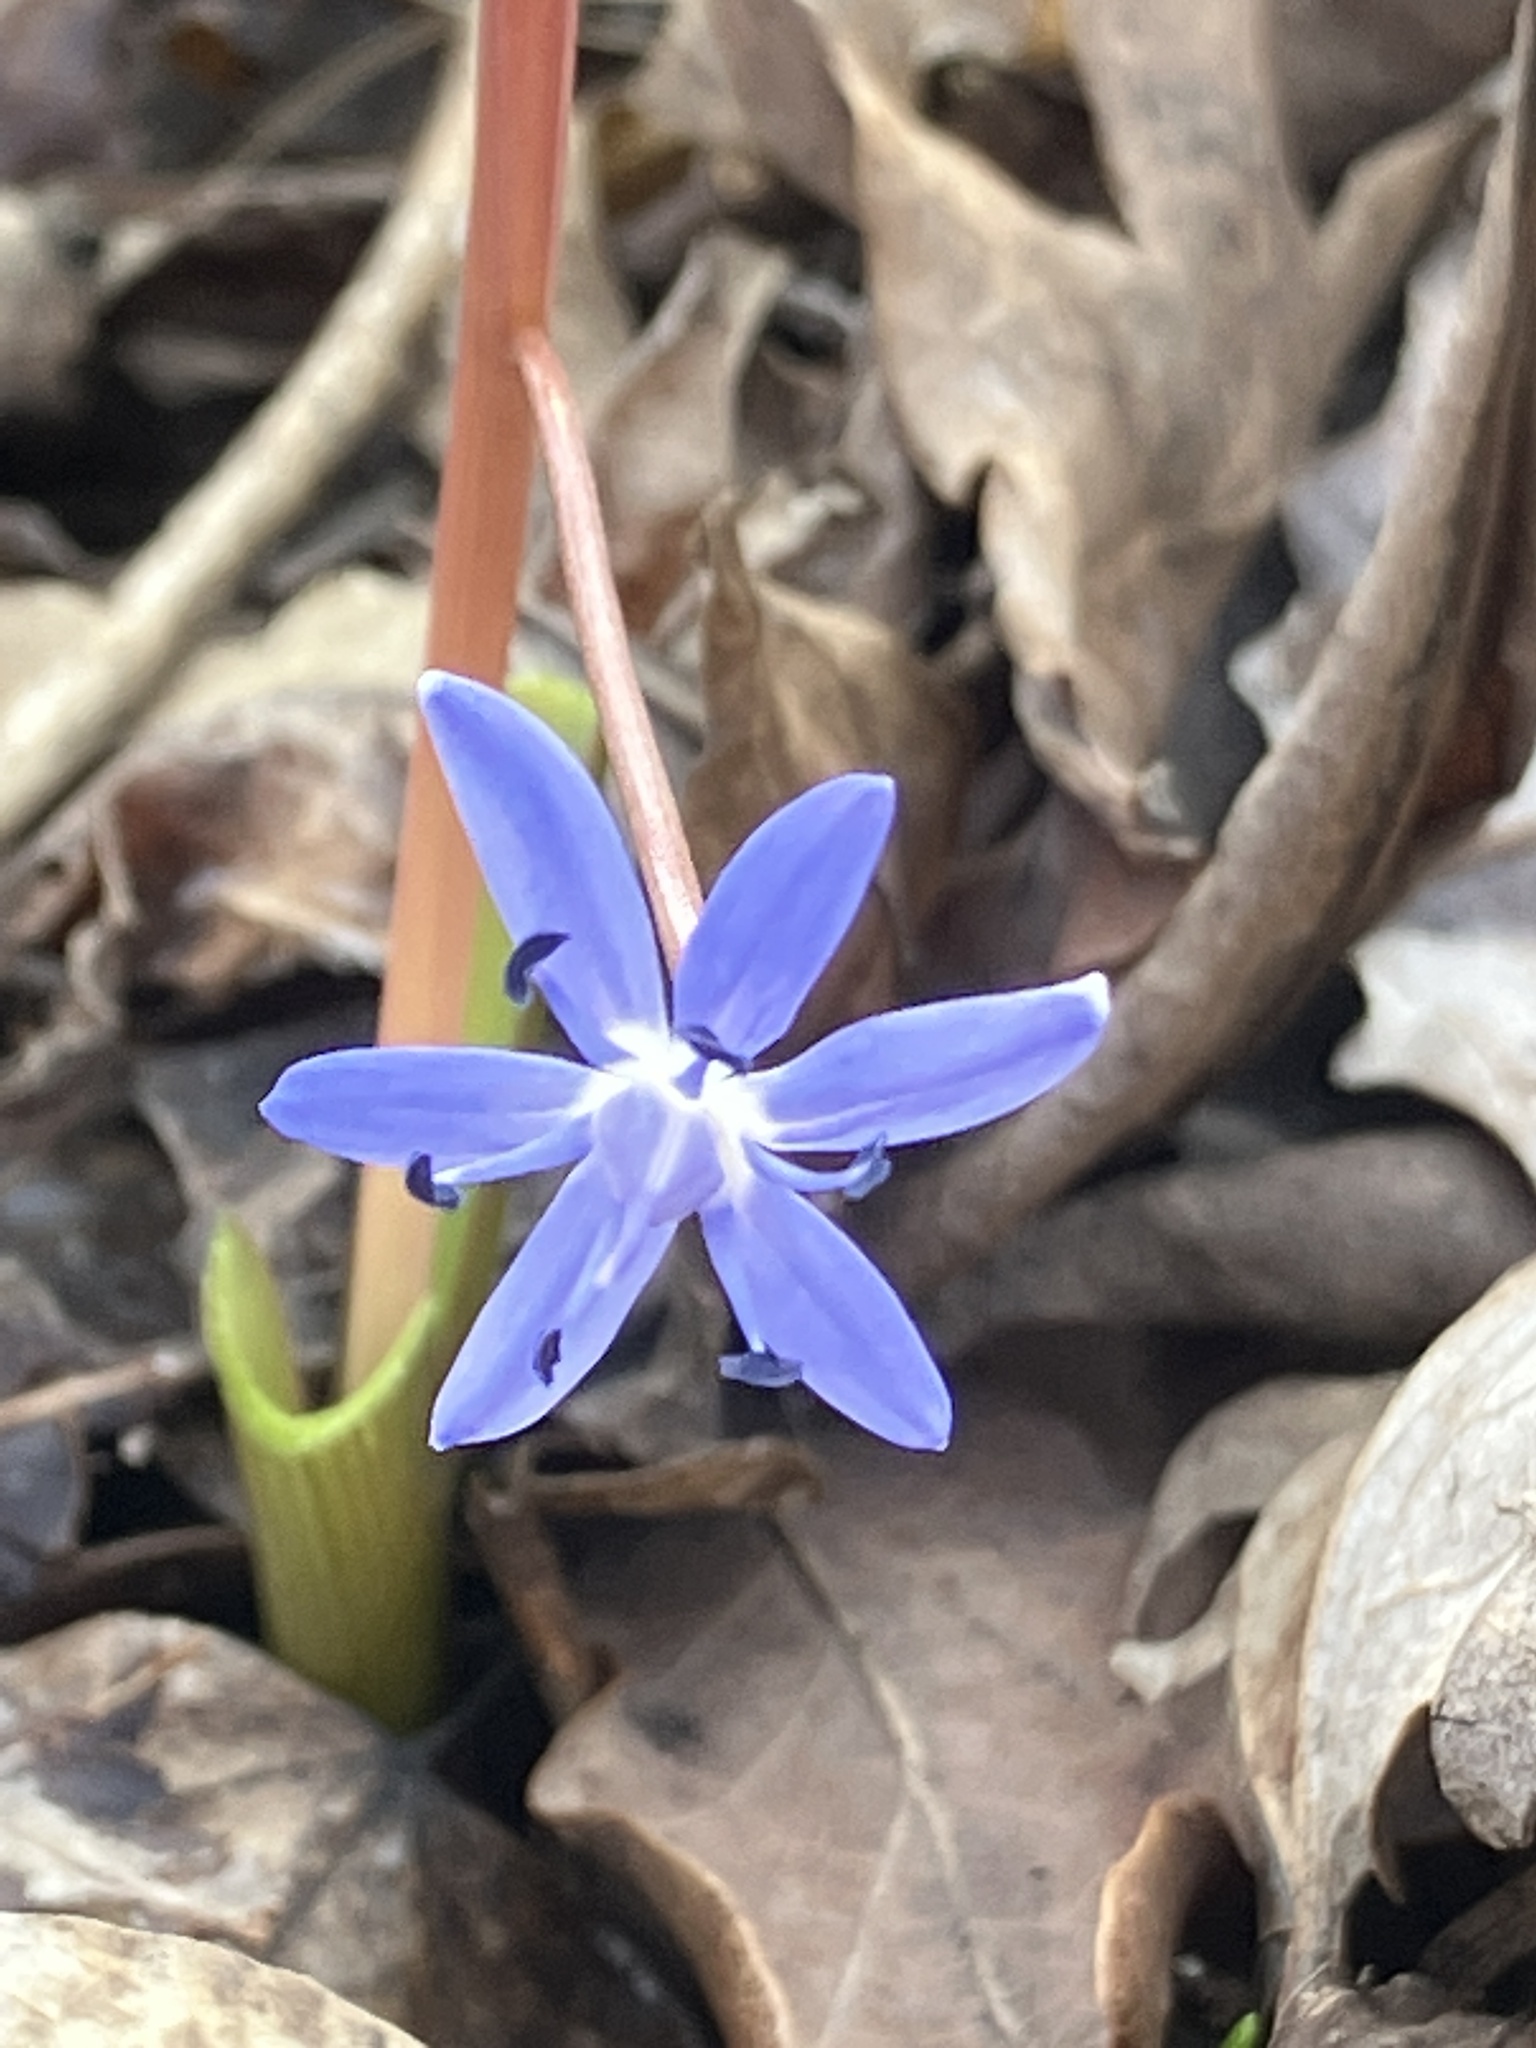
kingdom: Plantae
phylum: Tracheophyta
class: Liliopsida
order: Asparagales
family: Asparagaceae
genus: Scilla
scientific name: Scilla vindobonensis
